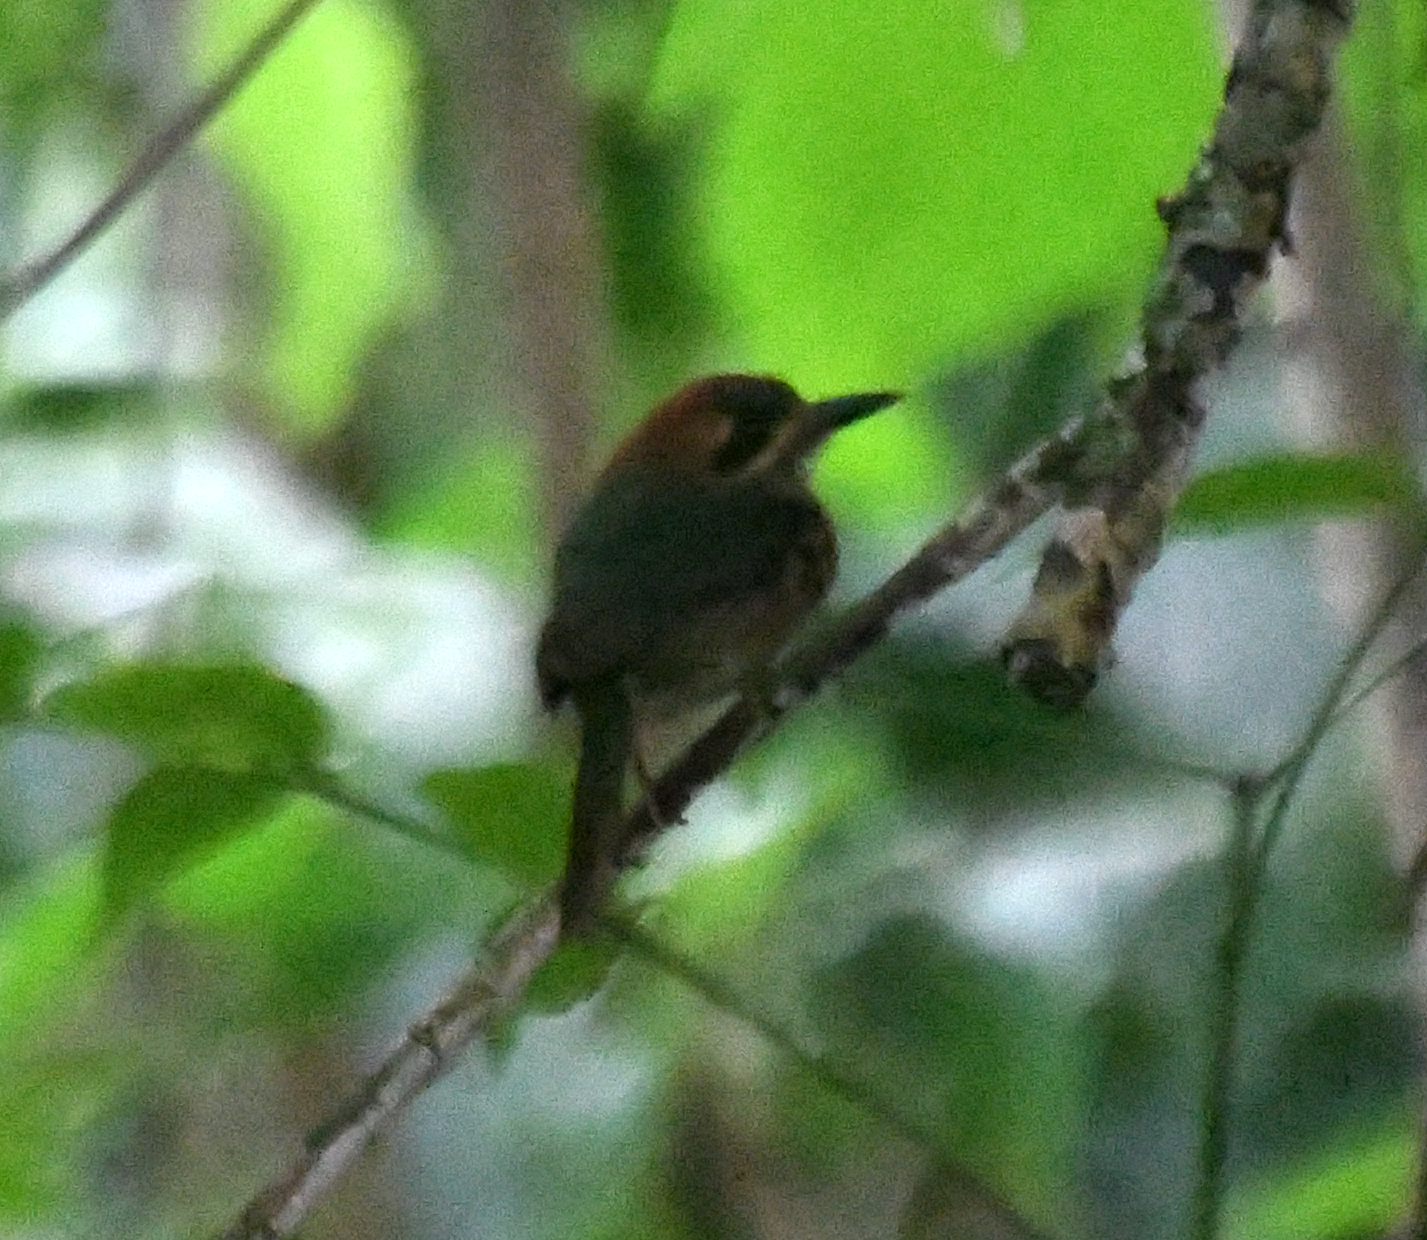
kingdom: Animalia
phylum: Chordata
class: Aves
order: Coraciiformes
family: Momotidae
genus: Hylomanes
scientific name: Hylomanes momotula
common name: Tody motmot
